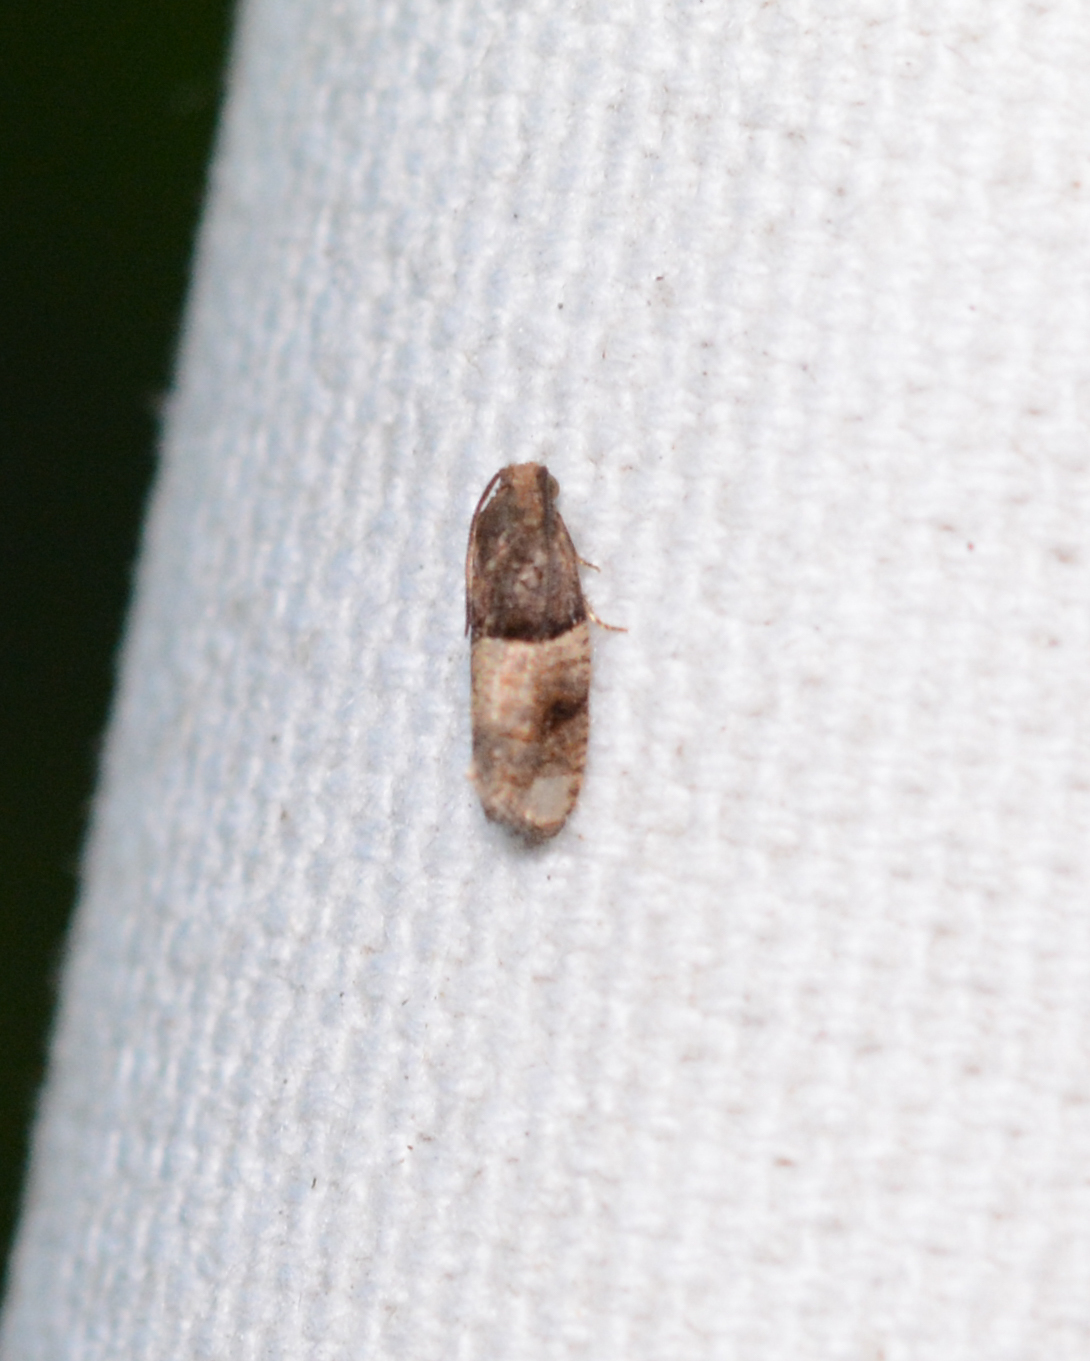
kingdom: Animalia
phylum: Arthropoda
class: Insecta
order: Lepidoptera
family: Tortricidae
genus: Larisa
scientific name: Larisa subsolana
